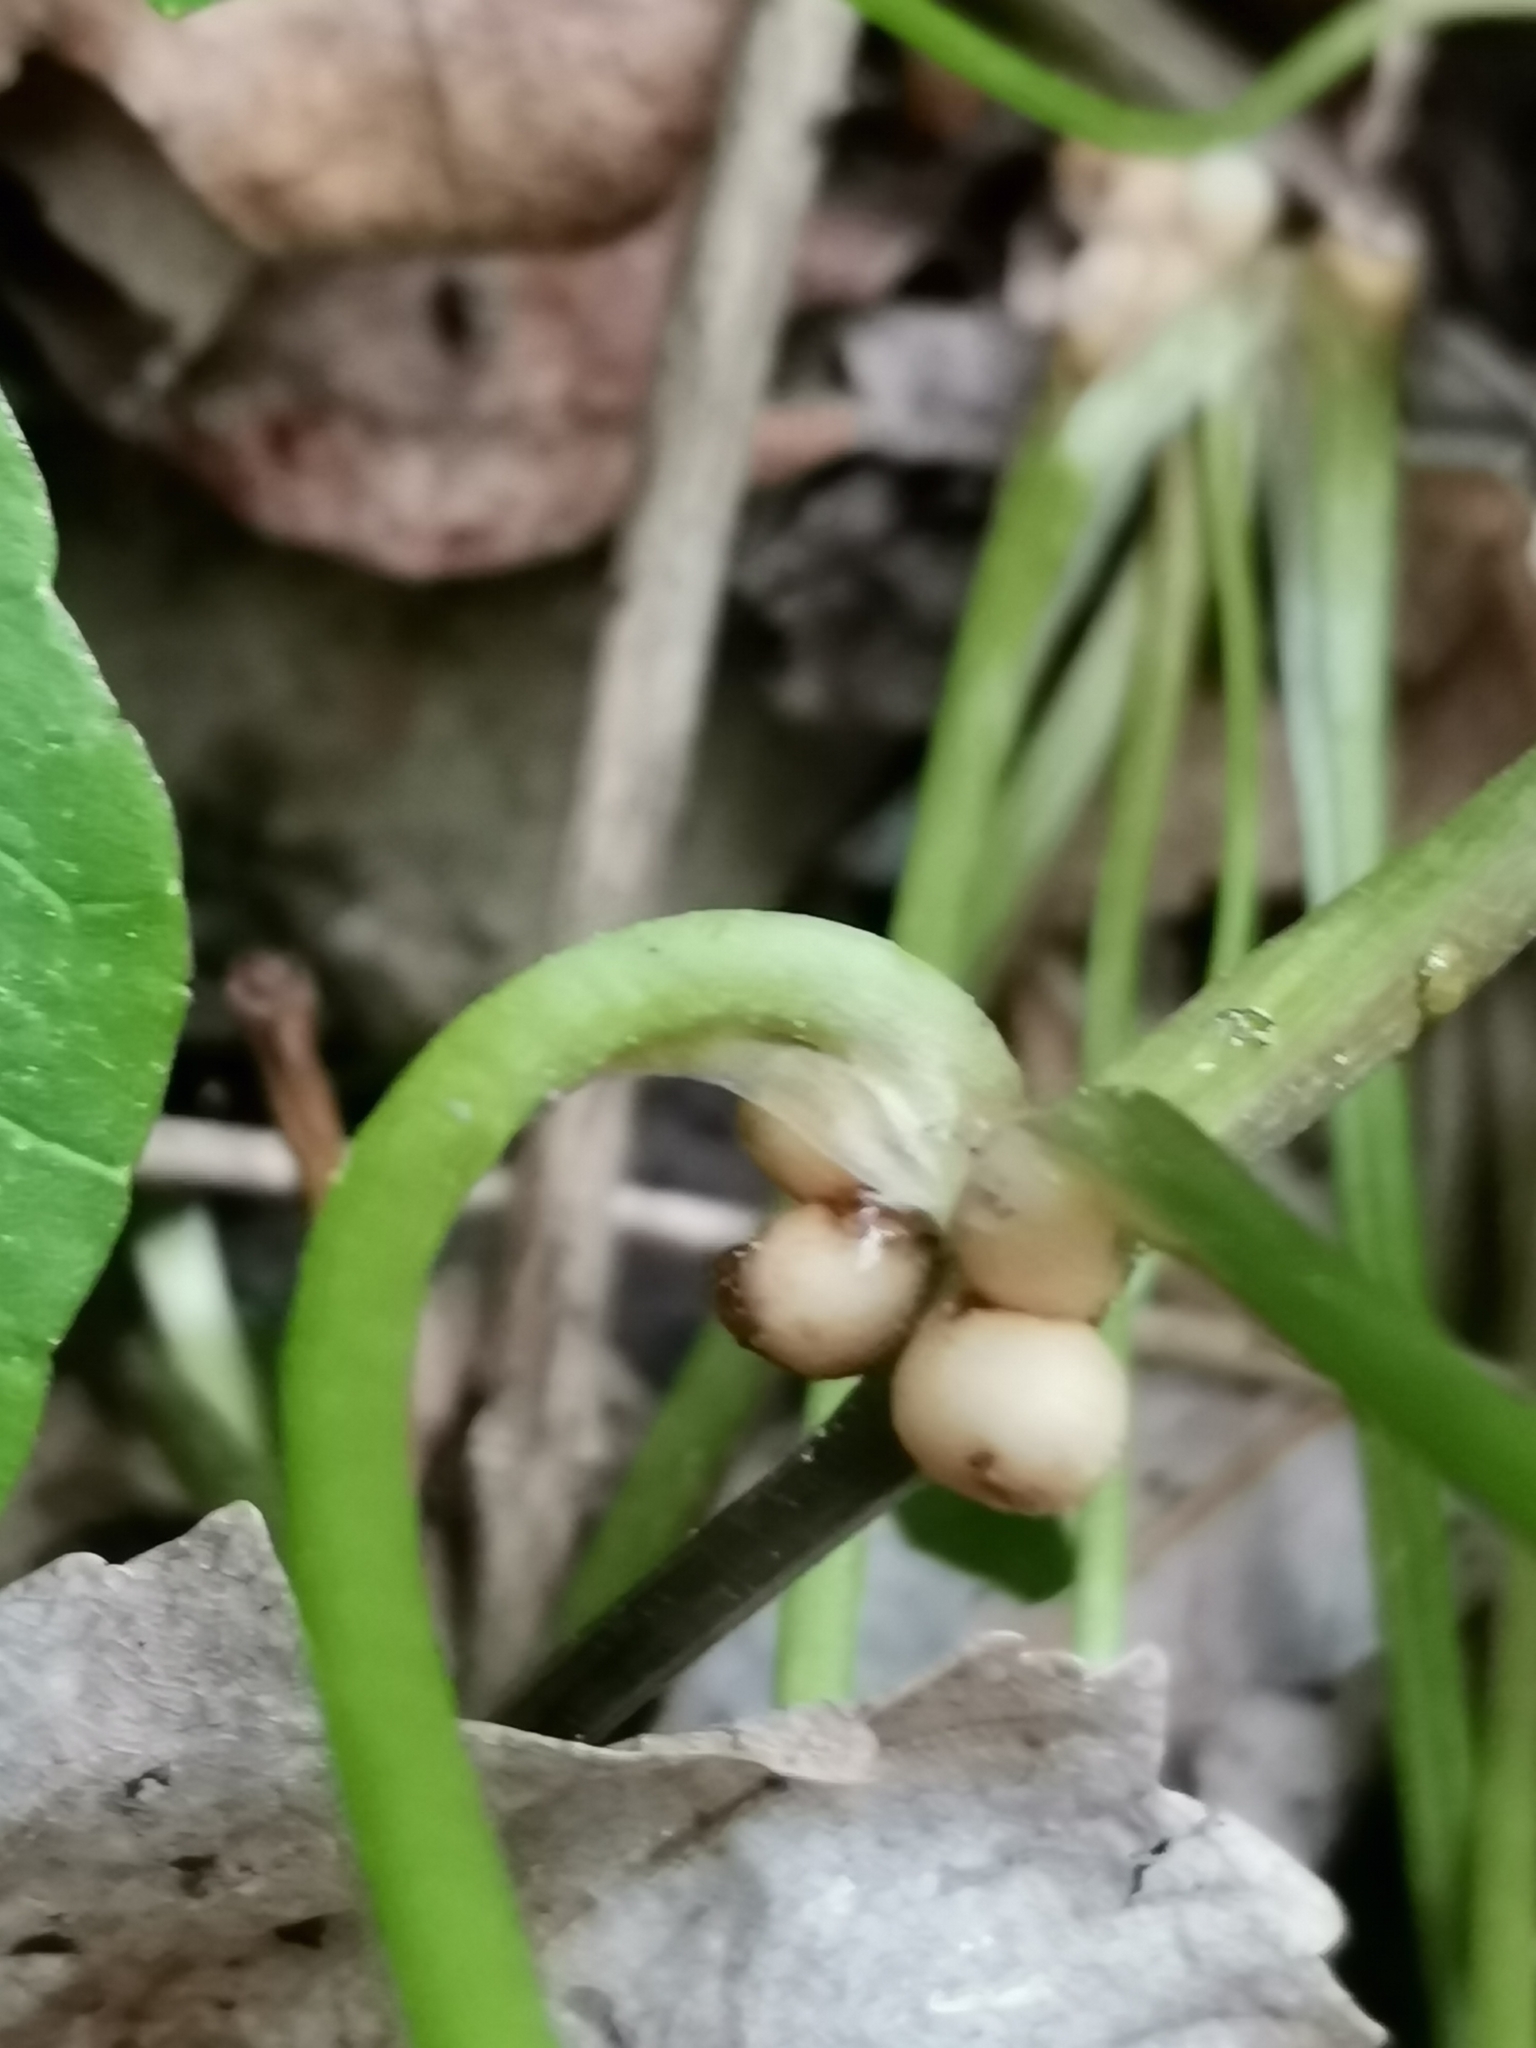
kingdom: Plantae
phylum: Tracheophyta
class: Magnoliopsida
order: Ranunculales
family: Ranunculaceae
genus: Ficaria
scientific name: Ficaria verna
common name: Lesser celandine
